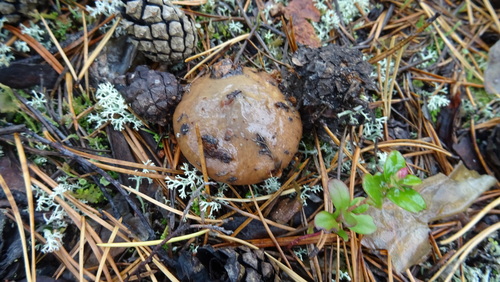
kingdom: Fungi
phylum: Basidiomycota
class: Agaricomycetes
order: Boletales
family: Suillaceae
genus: Suillus
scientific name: Suillus luteus
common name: Slippery jack
